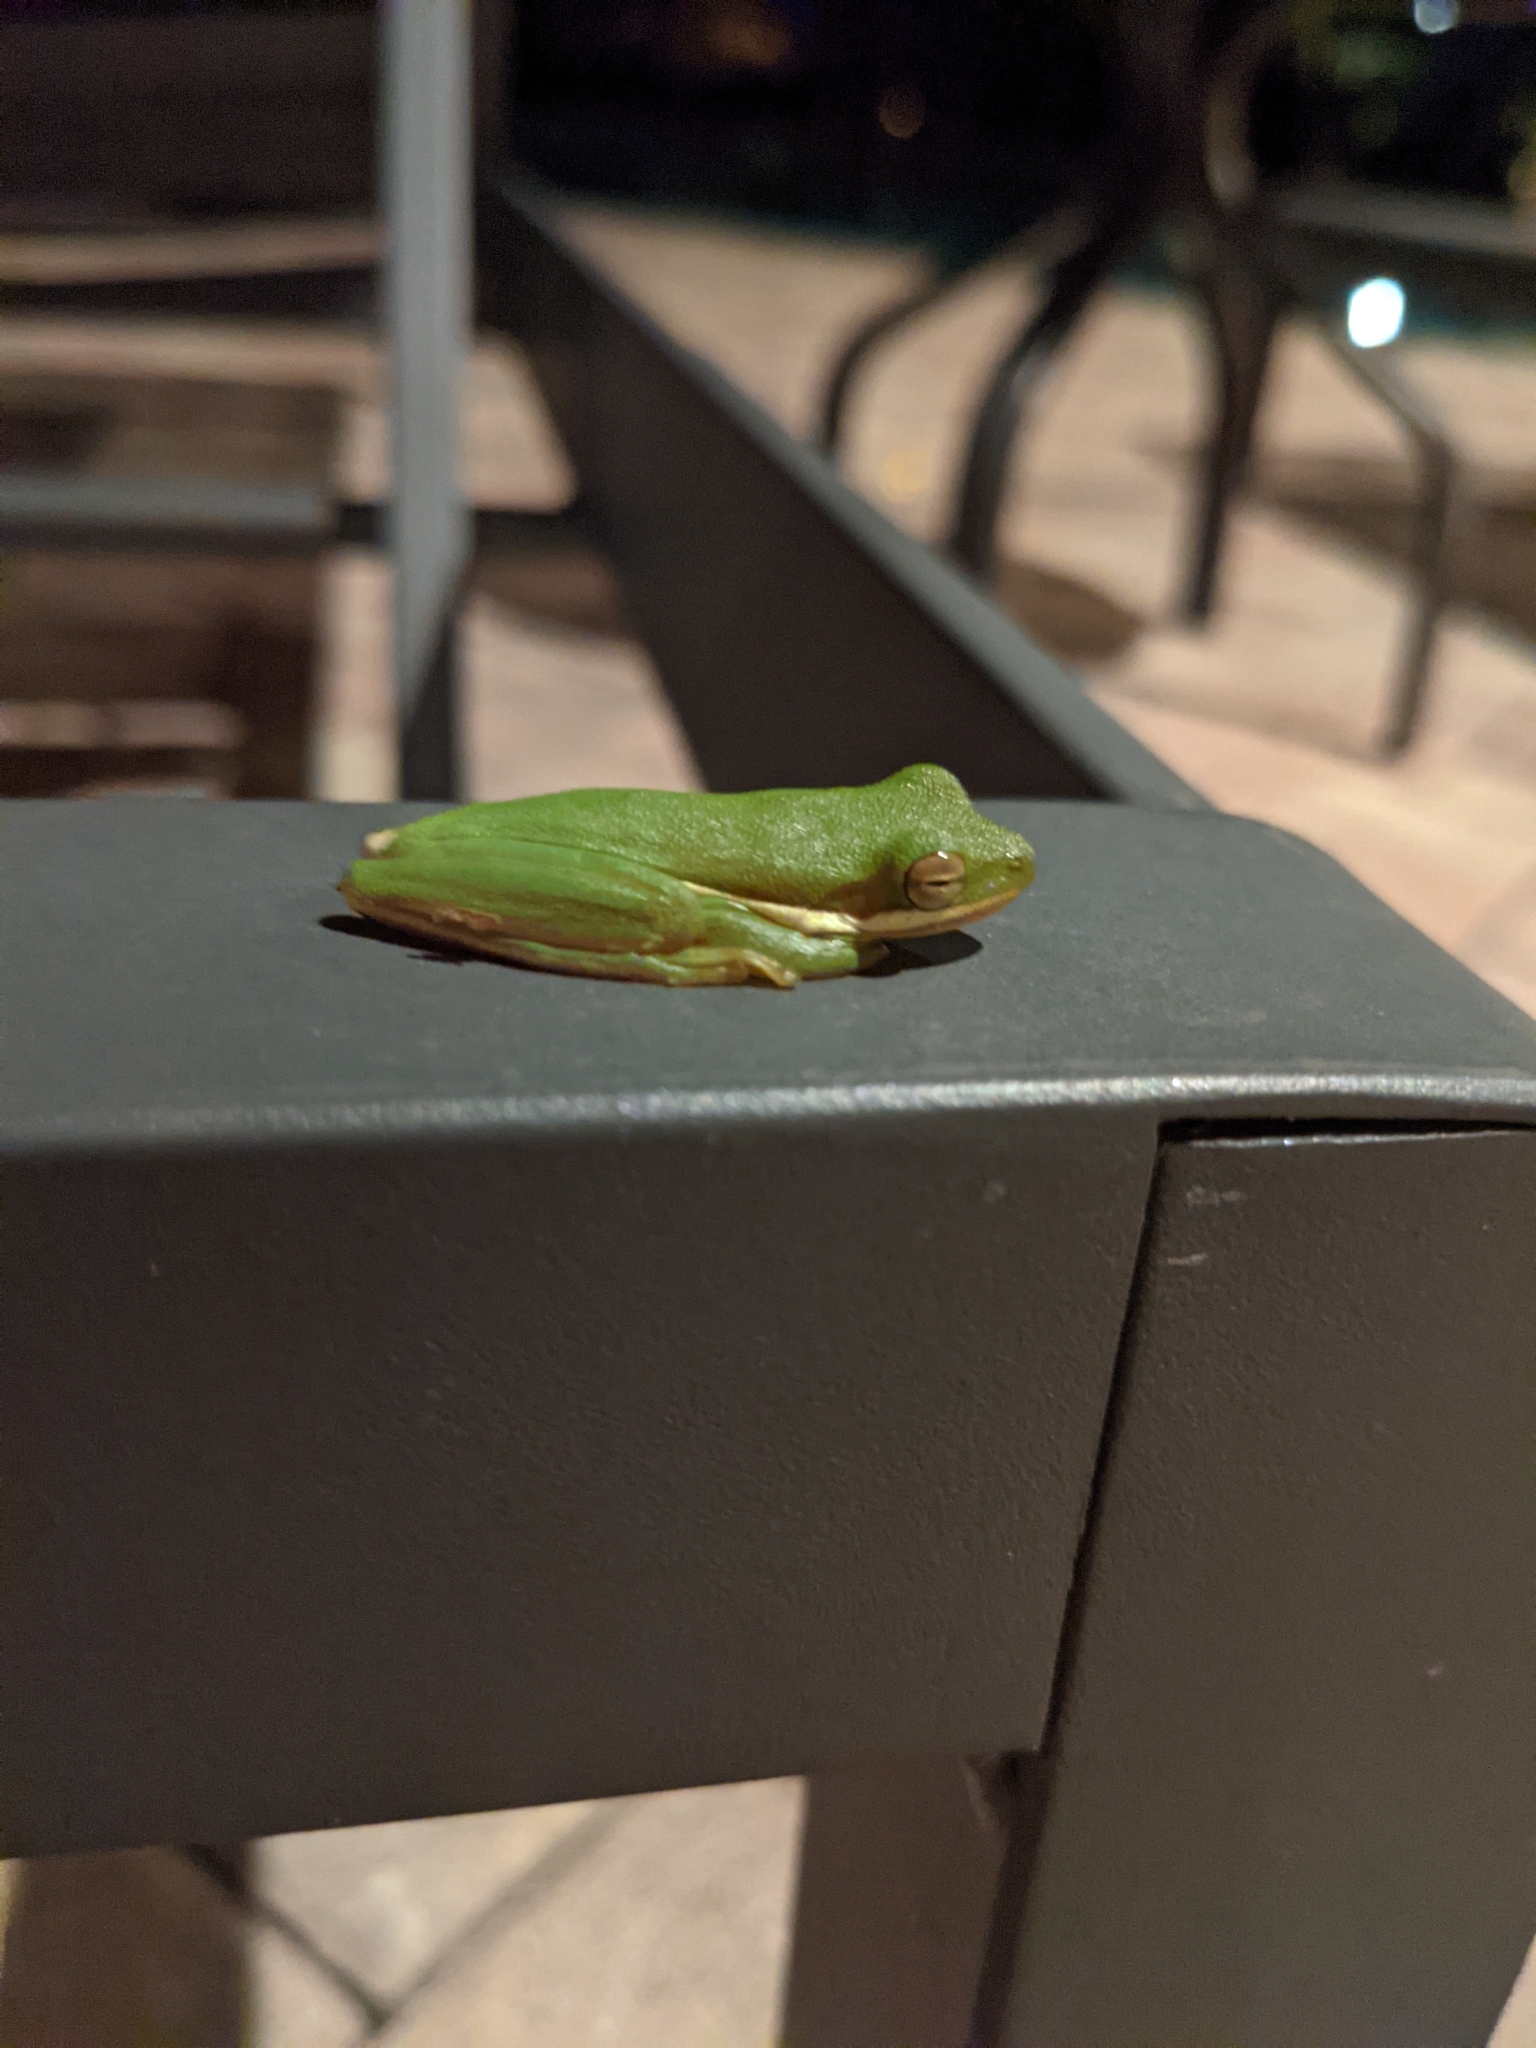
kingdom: Animalia
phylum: Chordata
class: Amphibia
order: Anura
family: Hylidae
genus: Dryophytes
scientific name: Dryophytes cinereus
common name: Green treefrog
